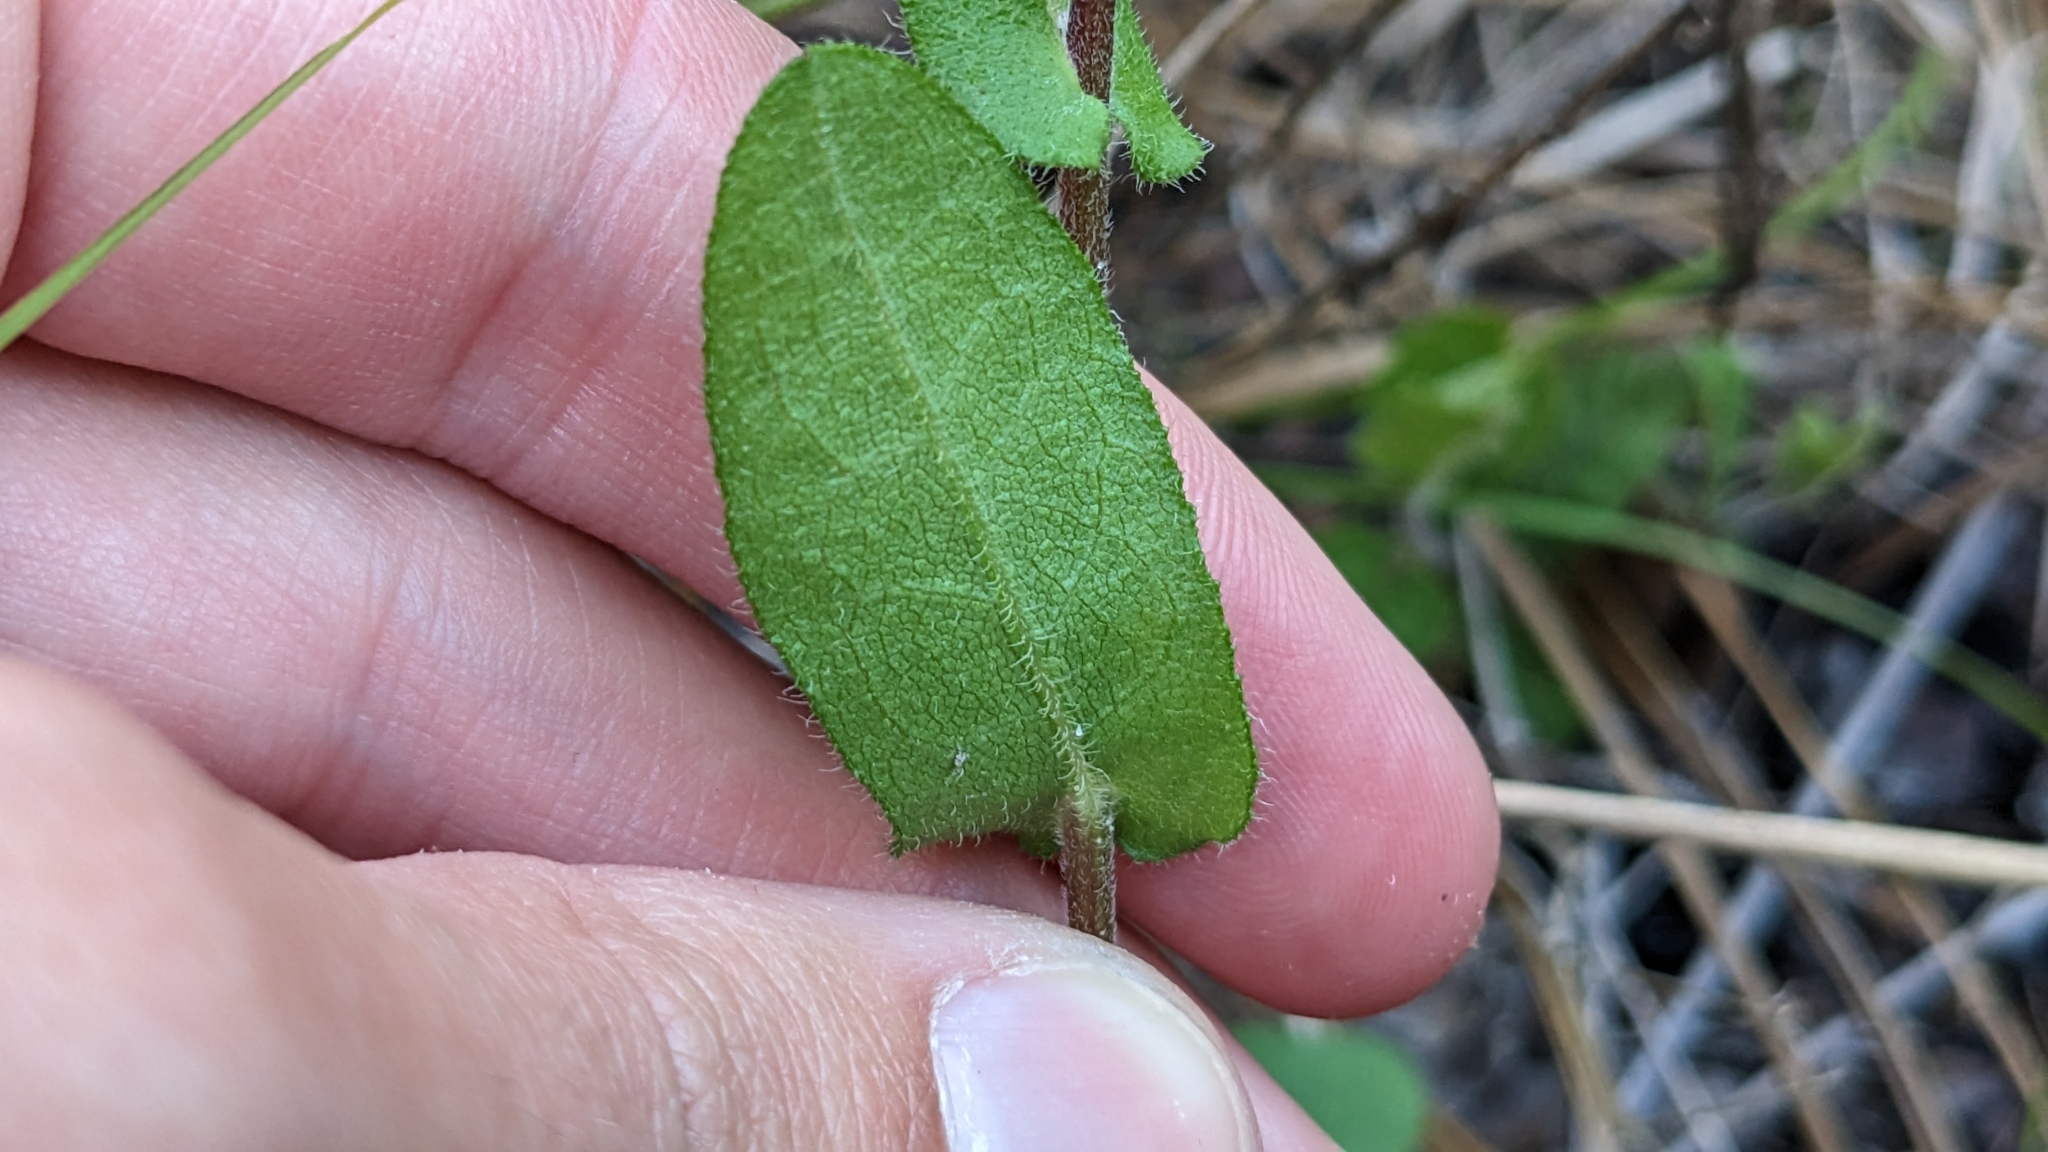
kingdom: Plantae
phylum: Tracheophyta
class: Magnoliopsida
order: Asterales
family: Asteraceae
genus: Symphyotrichum
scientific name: Symphyotrichum patens
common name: Late purple aster
